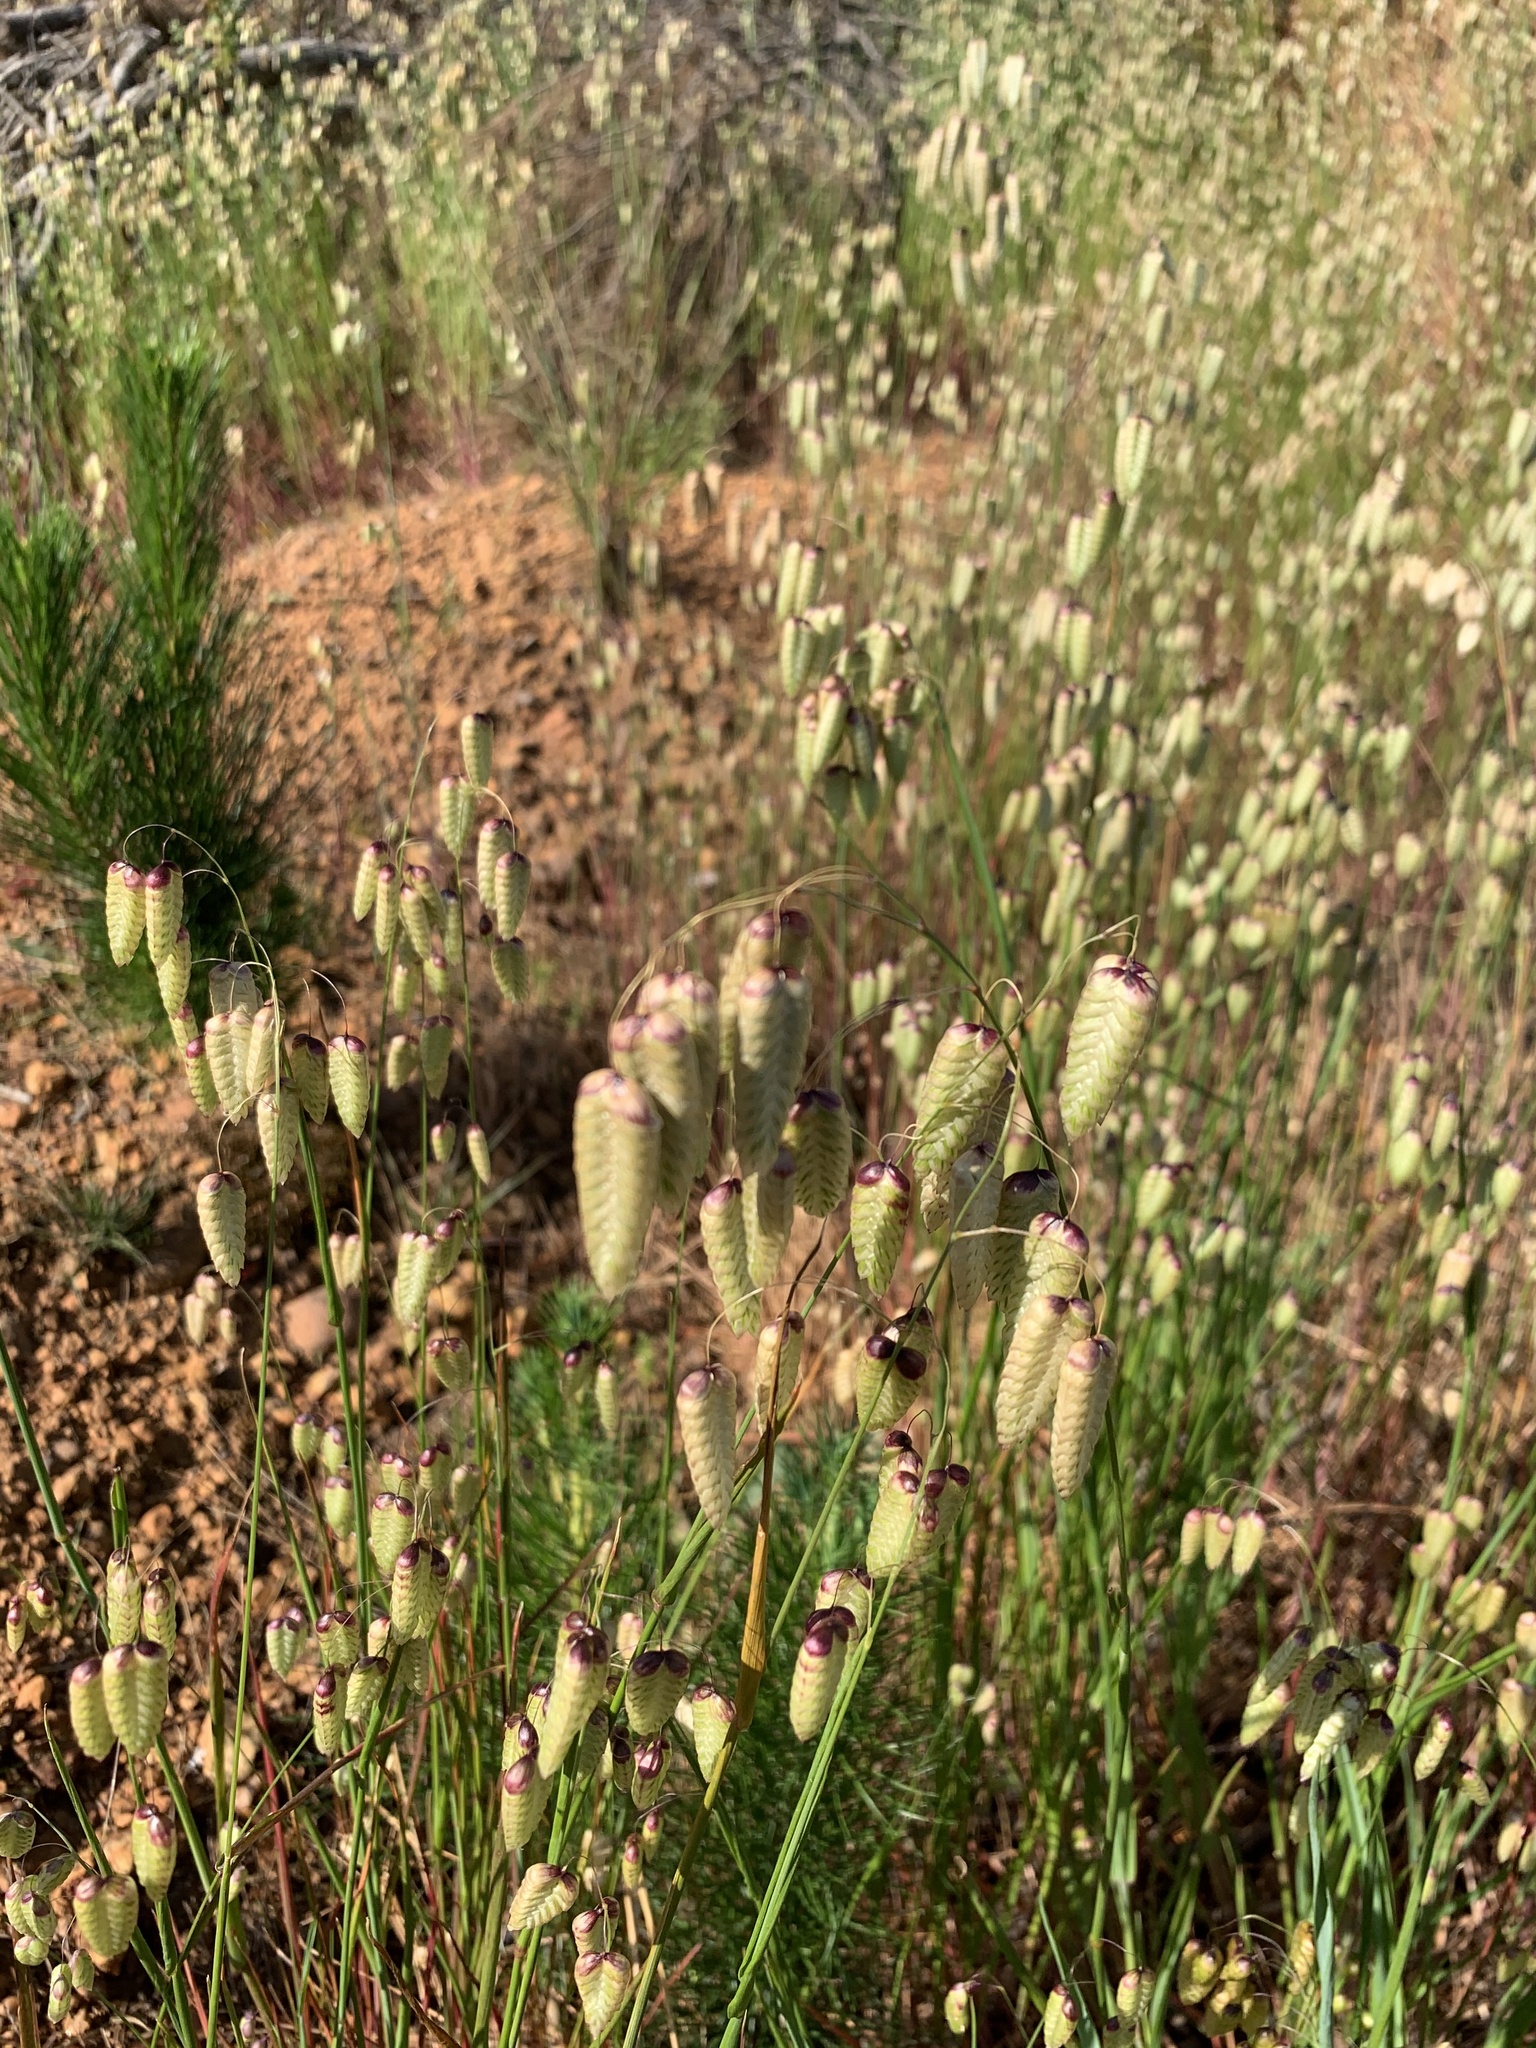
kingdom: Plantae
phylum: Tracheophyta
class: Liliopsida
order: Poales
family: Poaceae
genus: Briza
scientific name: Briza maxima
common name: Big quakinggrass
